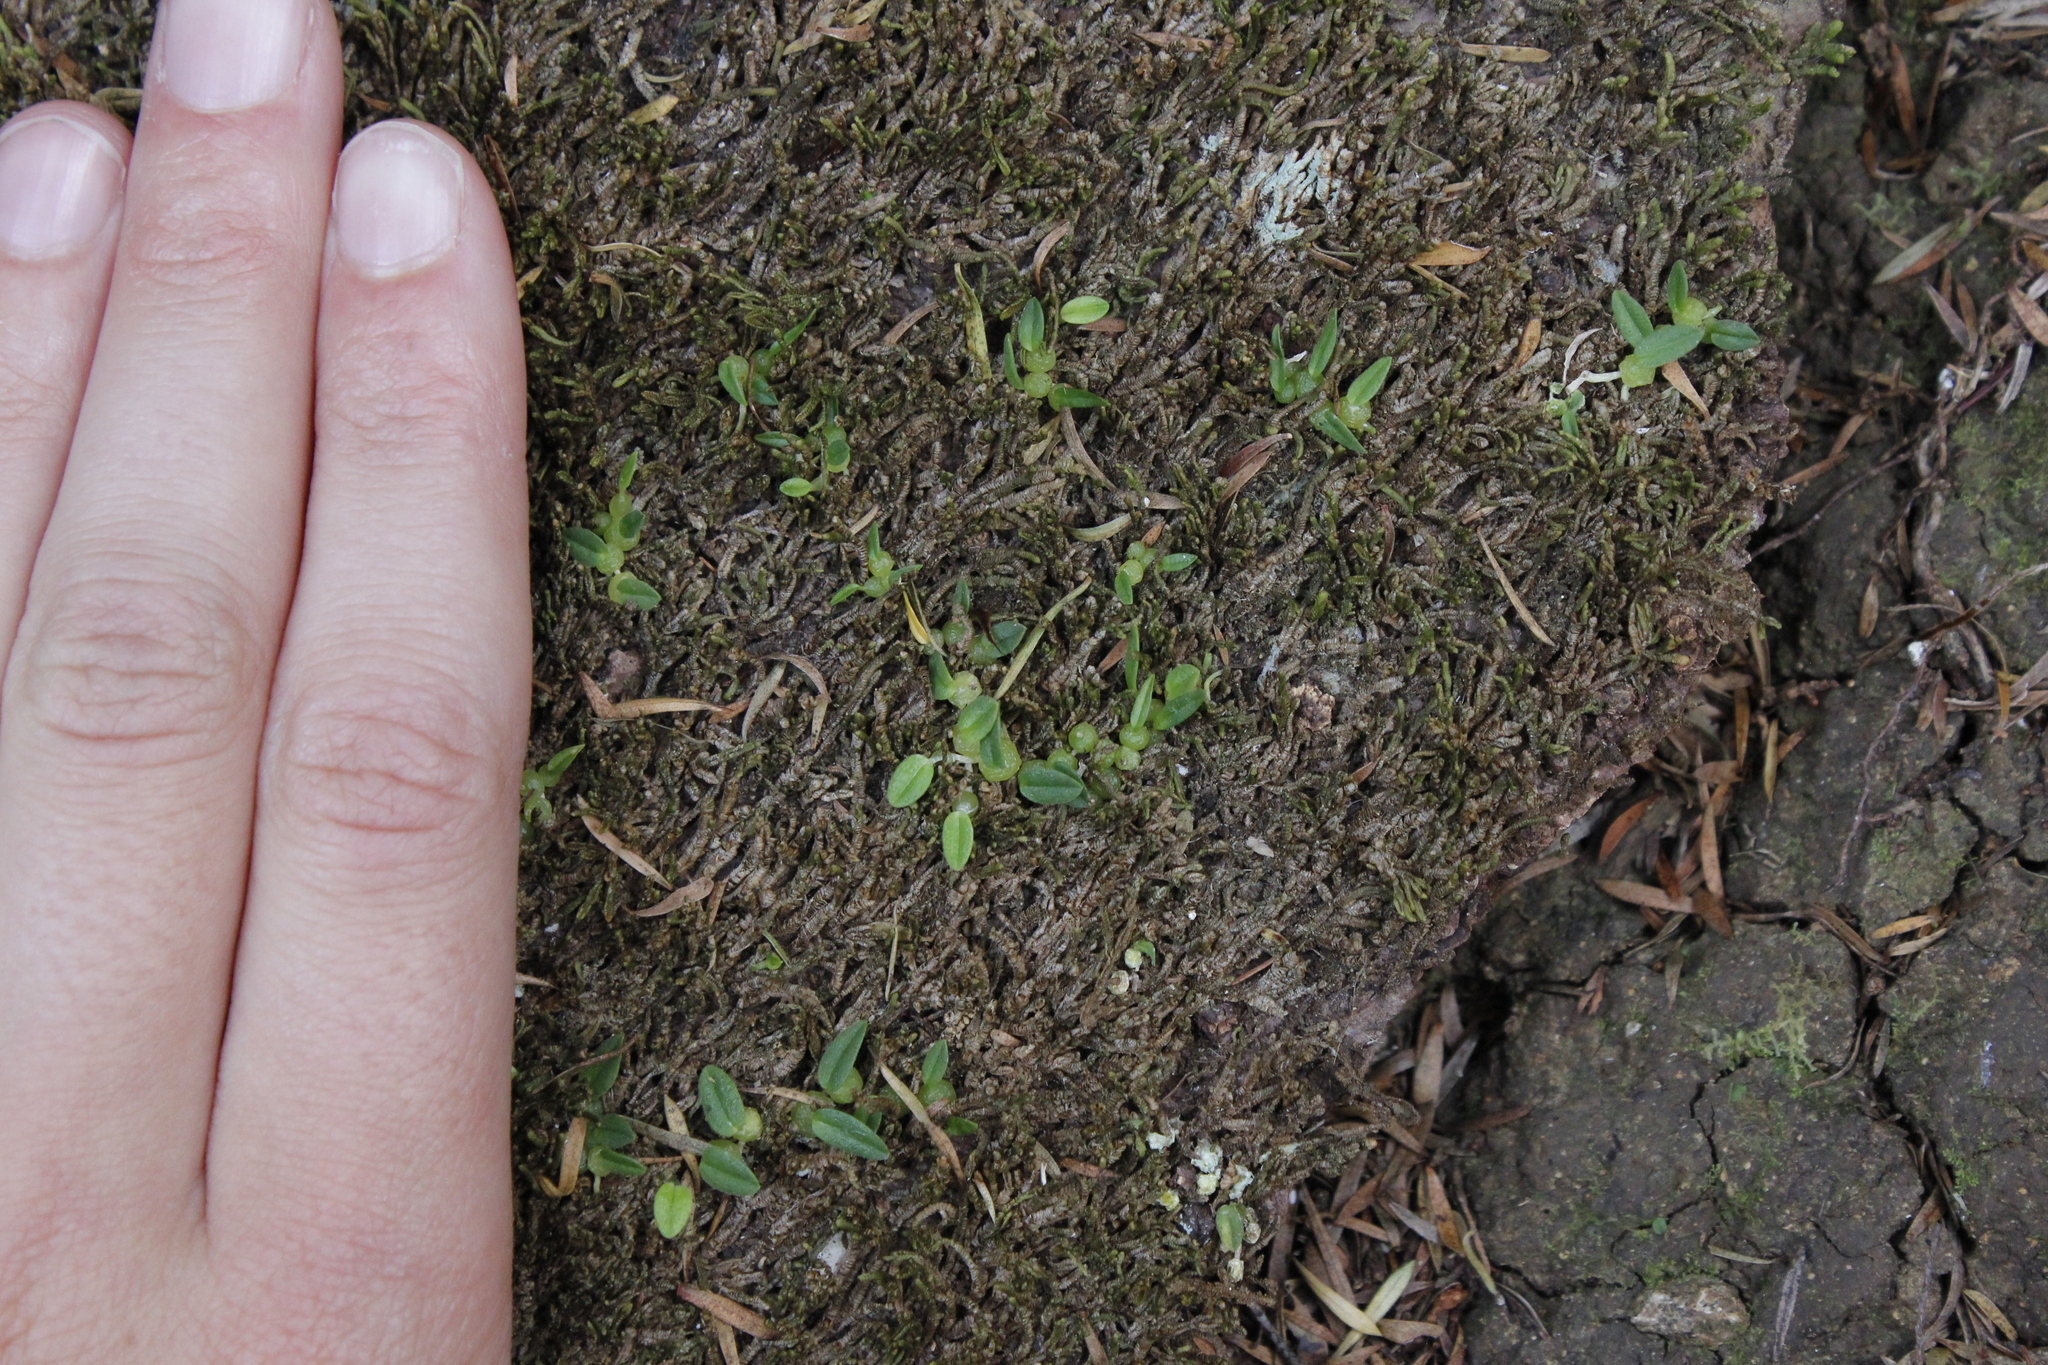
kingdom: Plantae
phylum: Tracheophyta
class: Liliopsida
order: Asparagales
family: Orchidaceae
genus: Bulbophyllum
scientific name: Bulbophyllum pygmaeum
